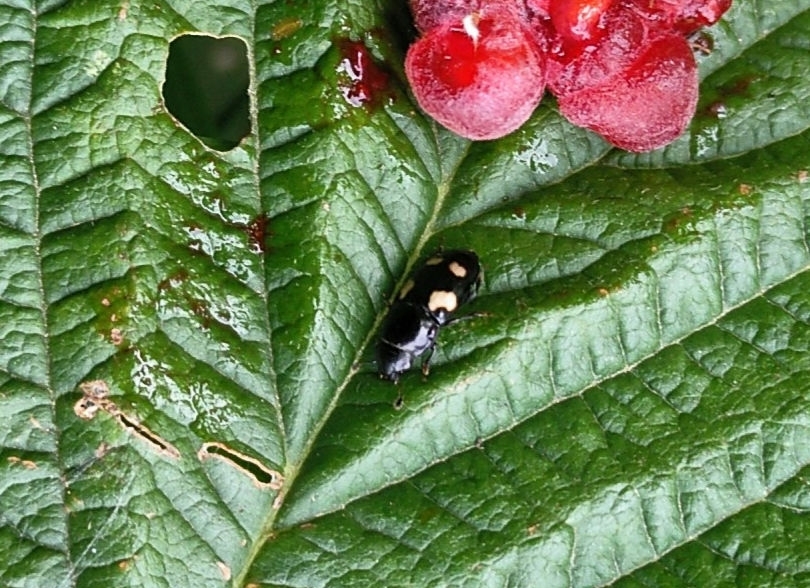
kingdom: Animalia
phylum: Arthropoda
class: Insecta
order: Coleoptera
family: Nitidulidae
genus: Glischrochilus
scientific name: Glischrochilus quadrisignatus
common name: Picnic beetle
